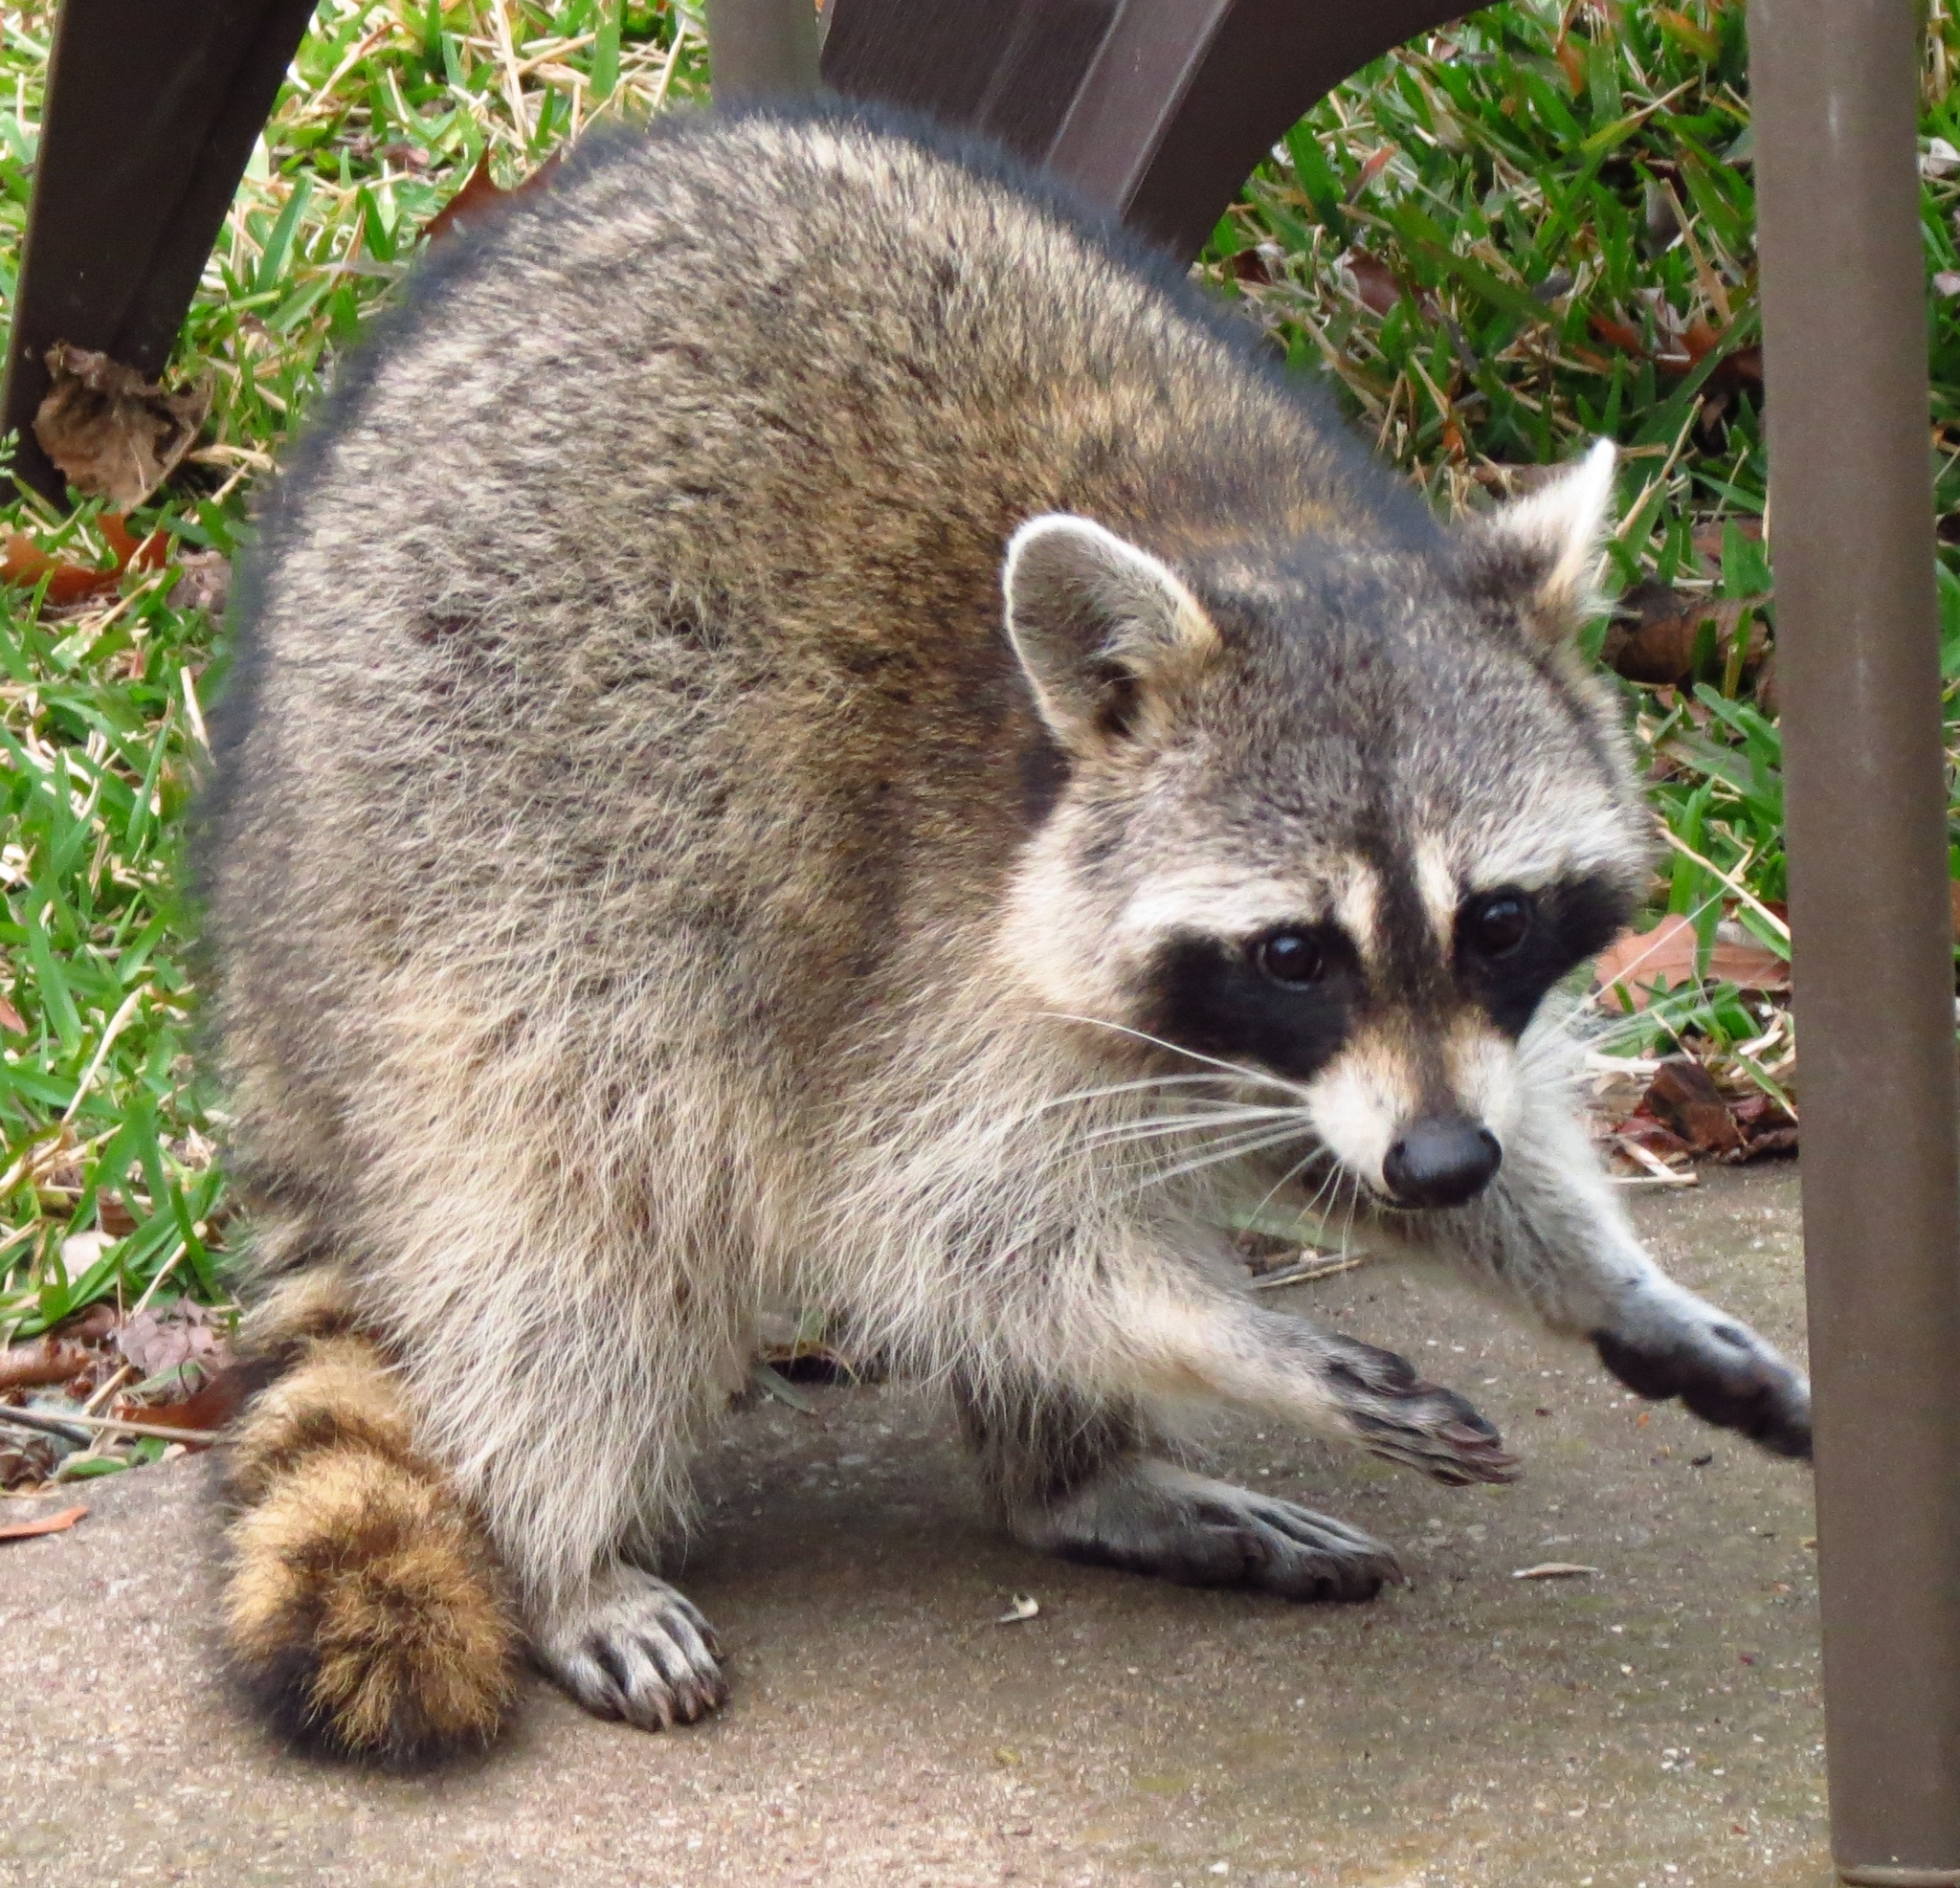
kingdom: Animalia
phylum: Chordata
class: Mammalia
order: Carnivora
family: Procyonidae
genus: Procyon
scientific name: Procyon lotor
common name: Raccoon
